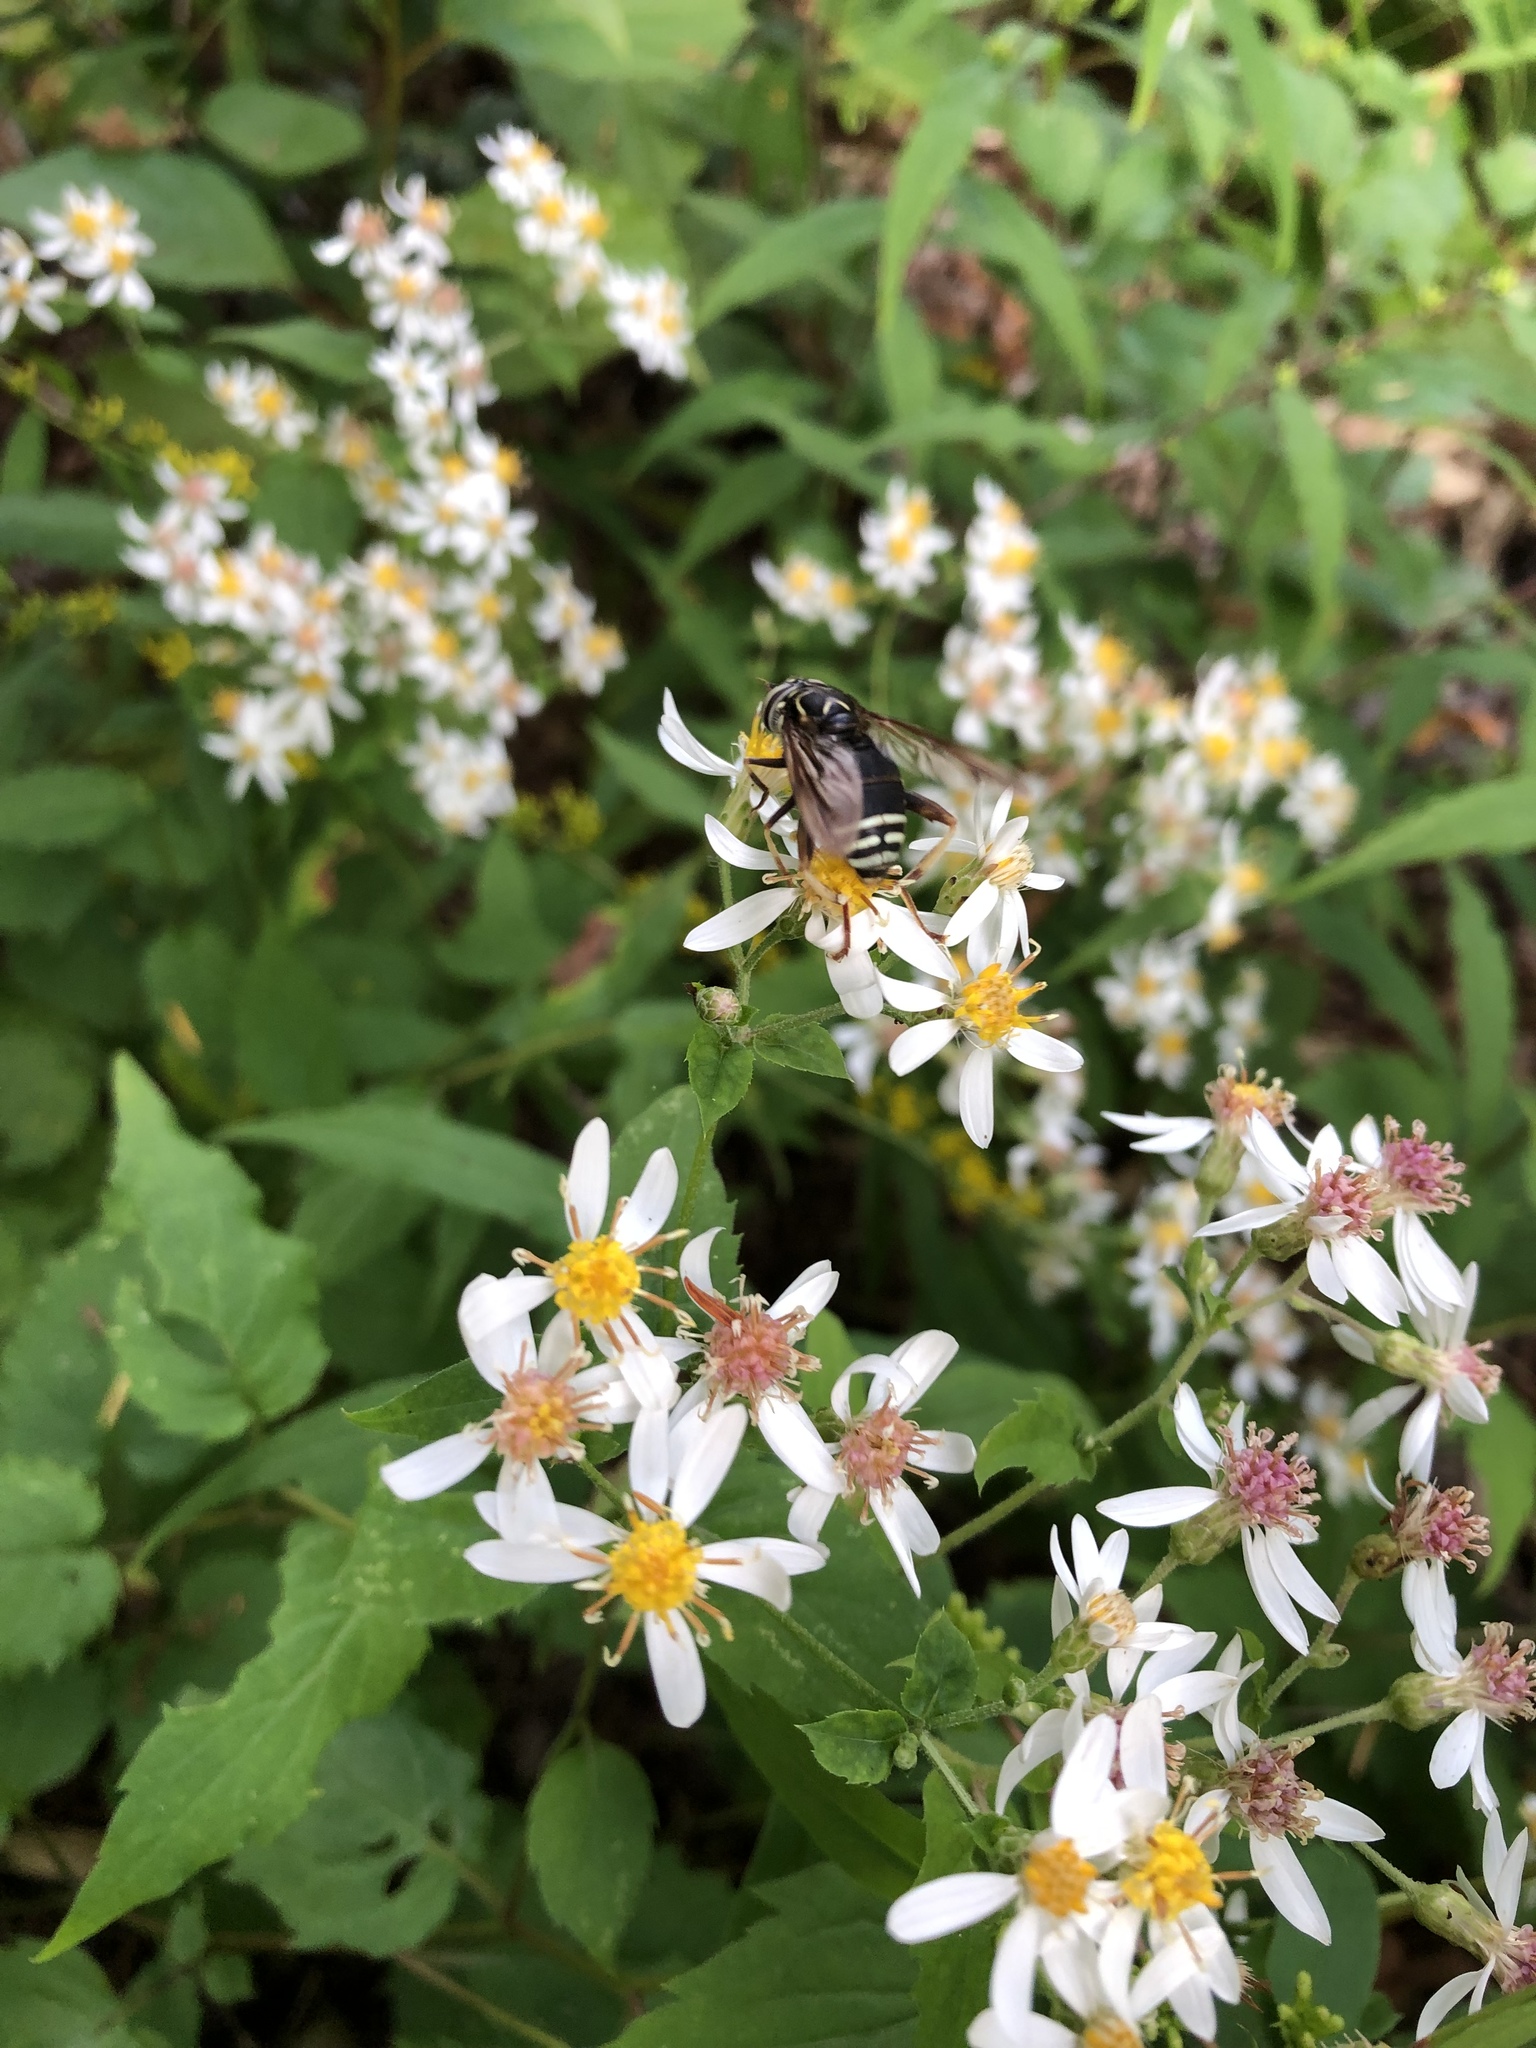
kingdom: Animalia
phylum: Arthropoda
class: Insecta
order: Diptera
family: Syrphidae
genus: Spilomyia
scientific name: Spilomyia fusca
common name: Bald-faced hornet fly
